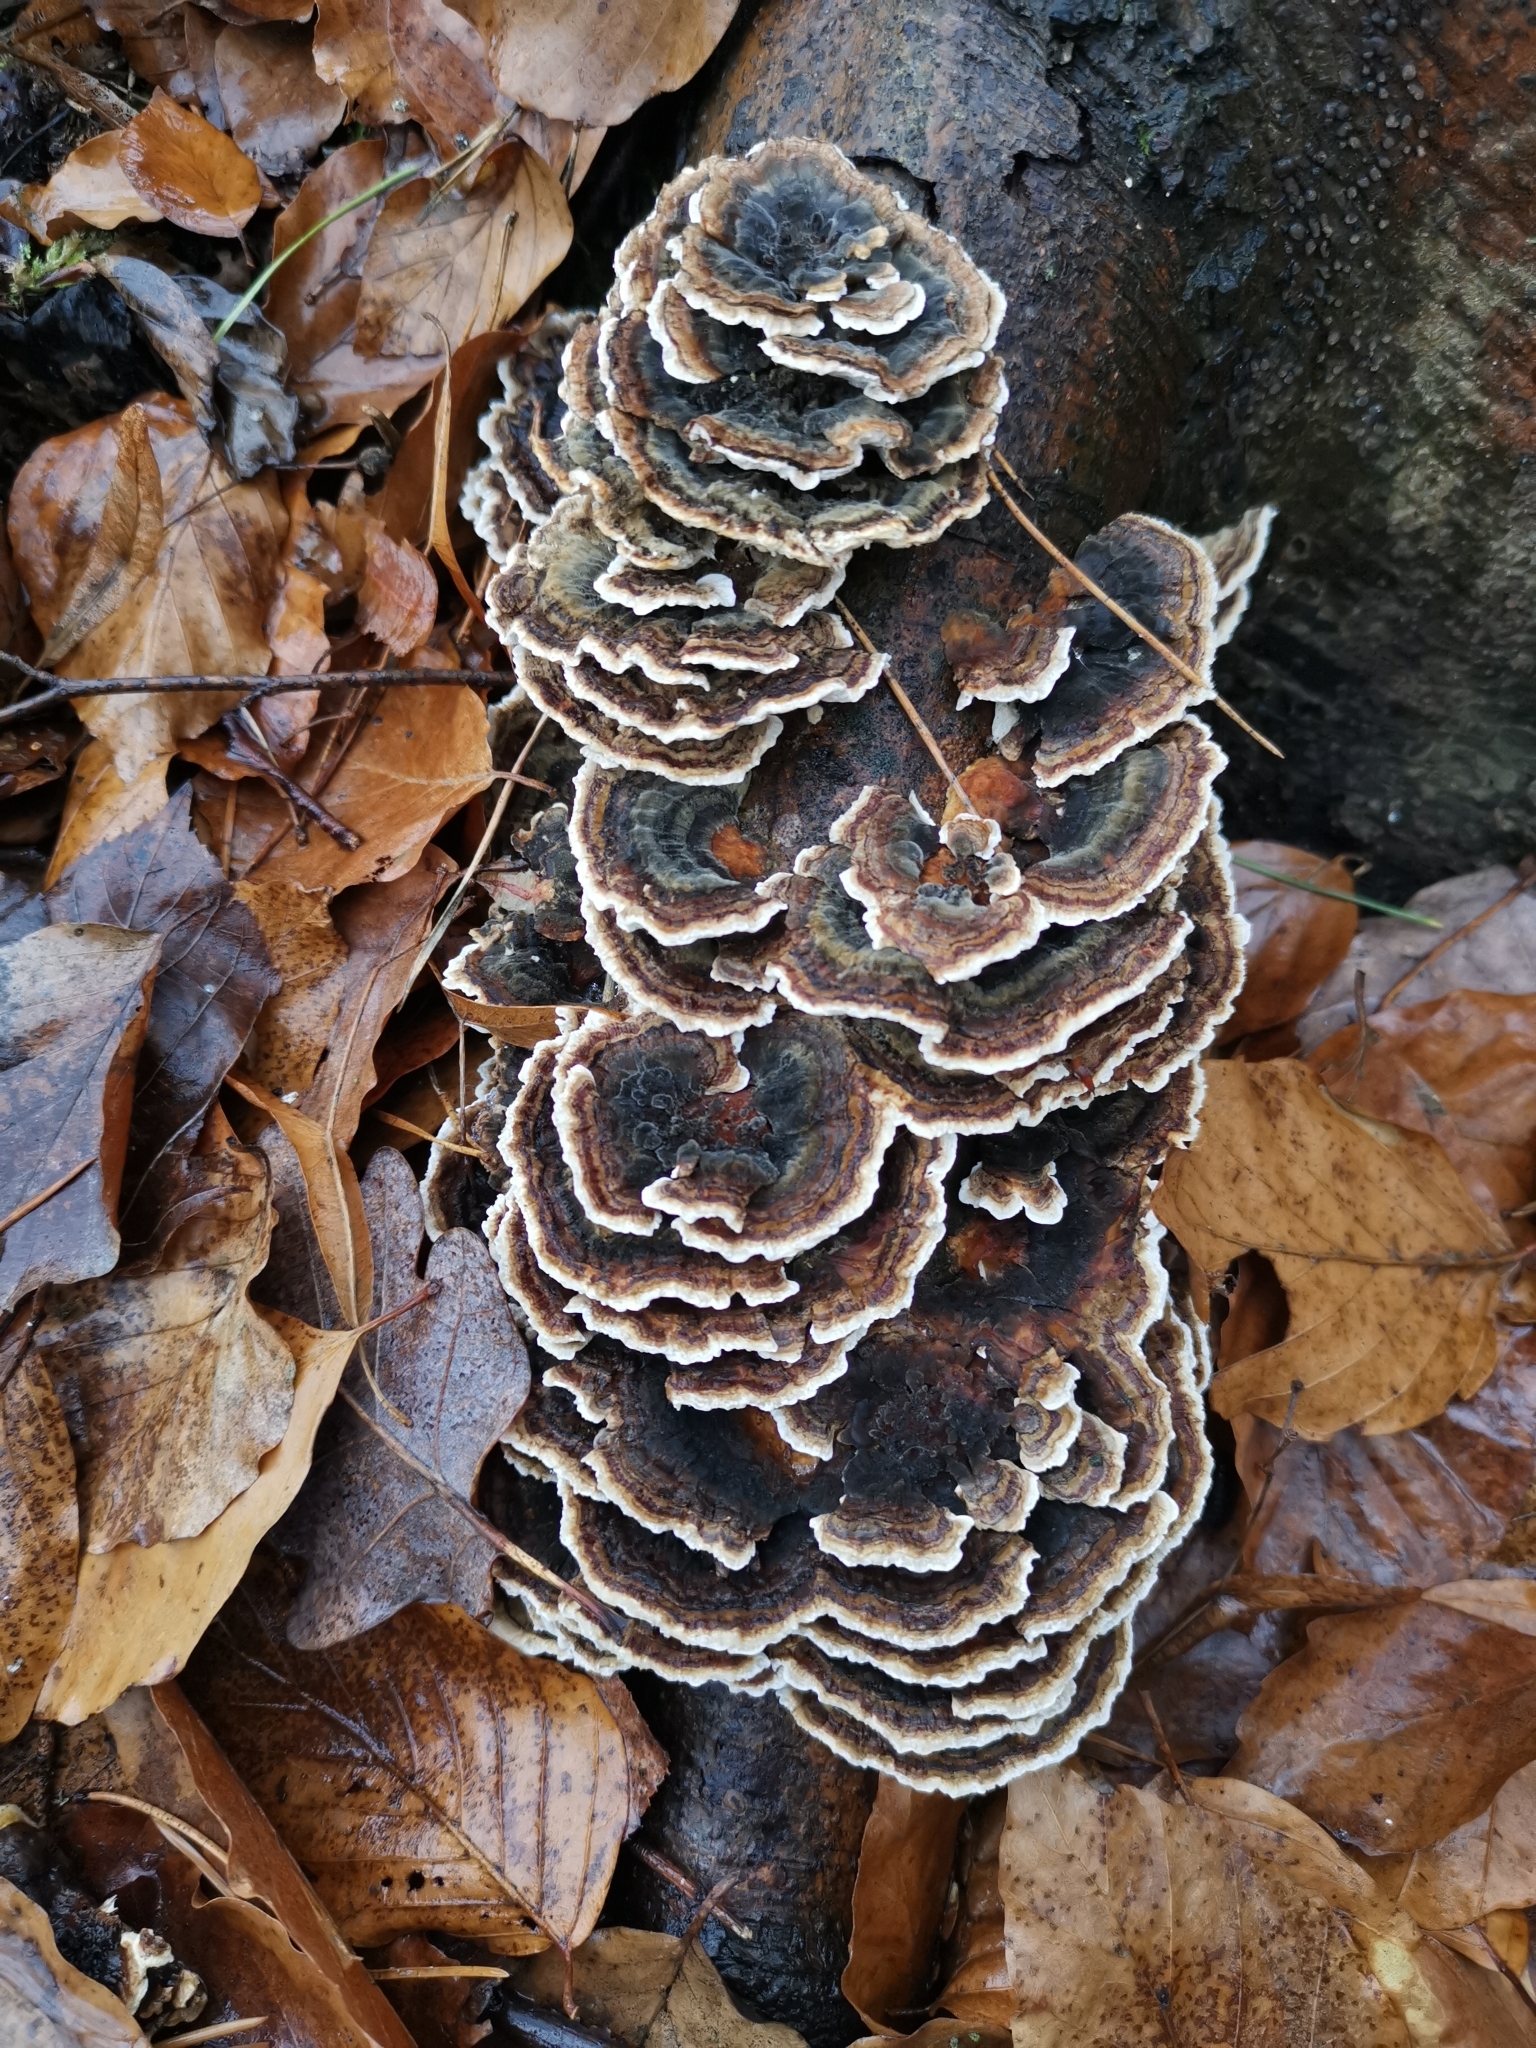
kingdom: Fungi
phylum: Basidiomycota
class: Agaricomycetes
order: Polyporales
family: Polyporaceae
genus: Trametes
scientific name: Trametes versicolor
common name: Turkeytail
